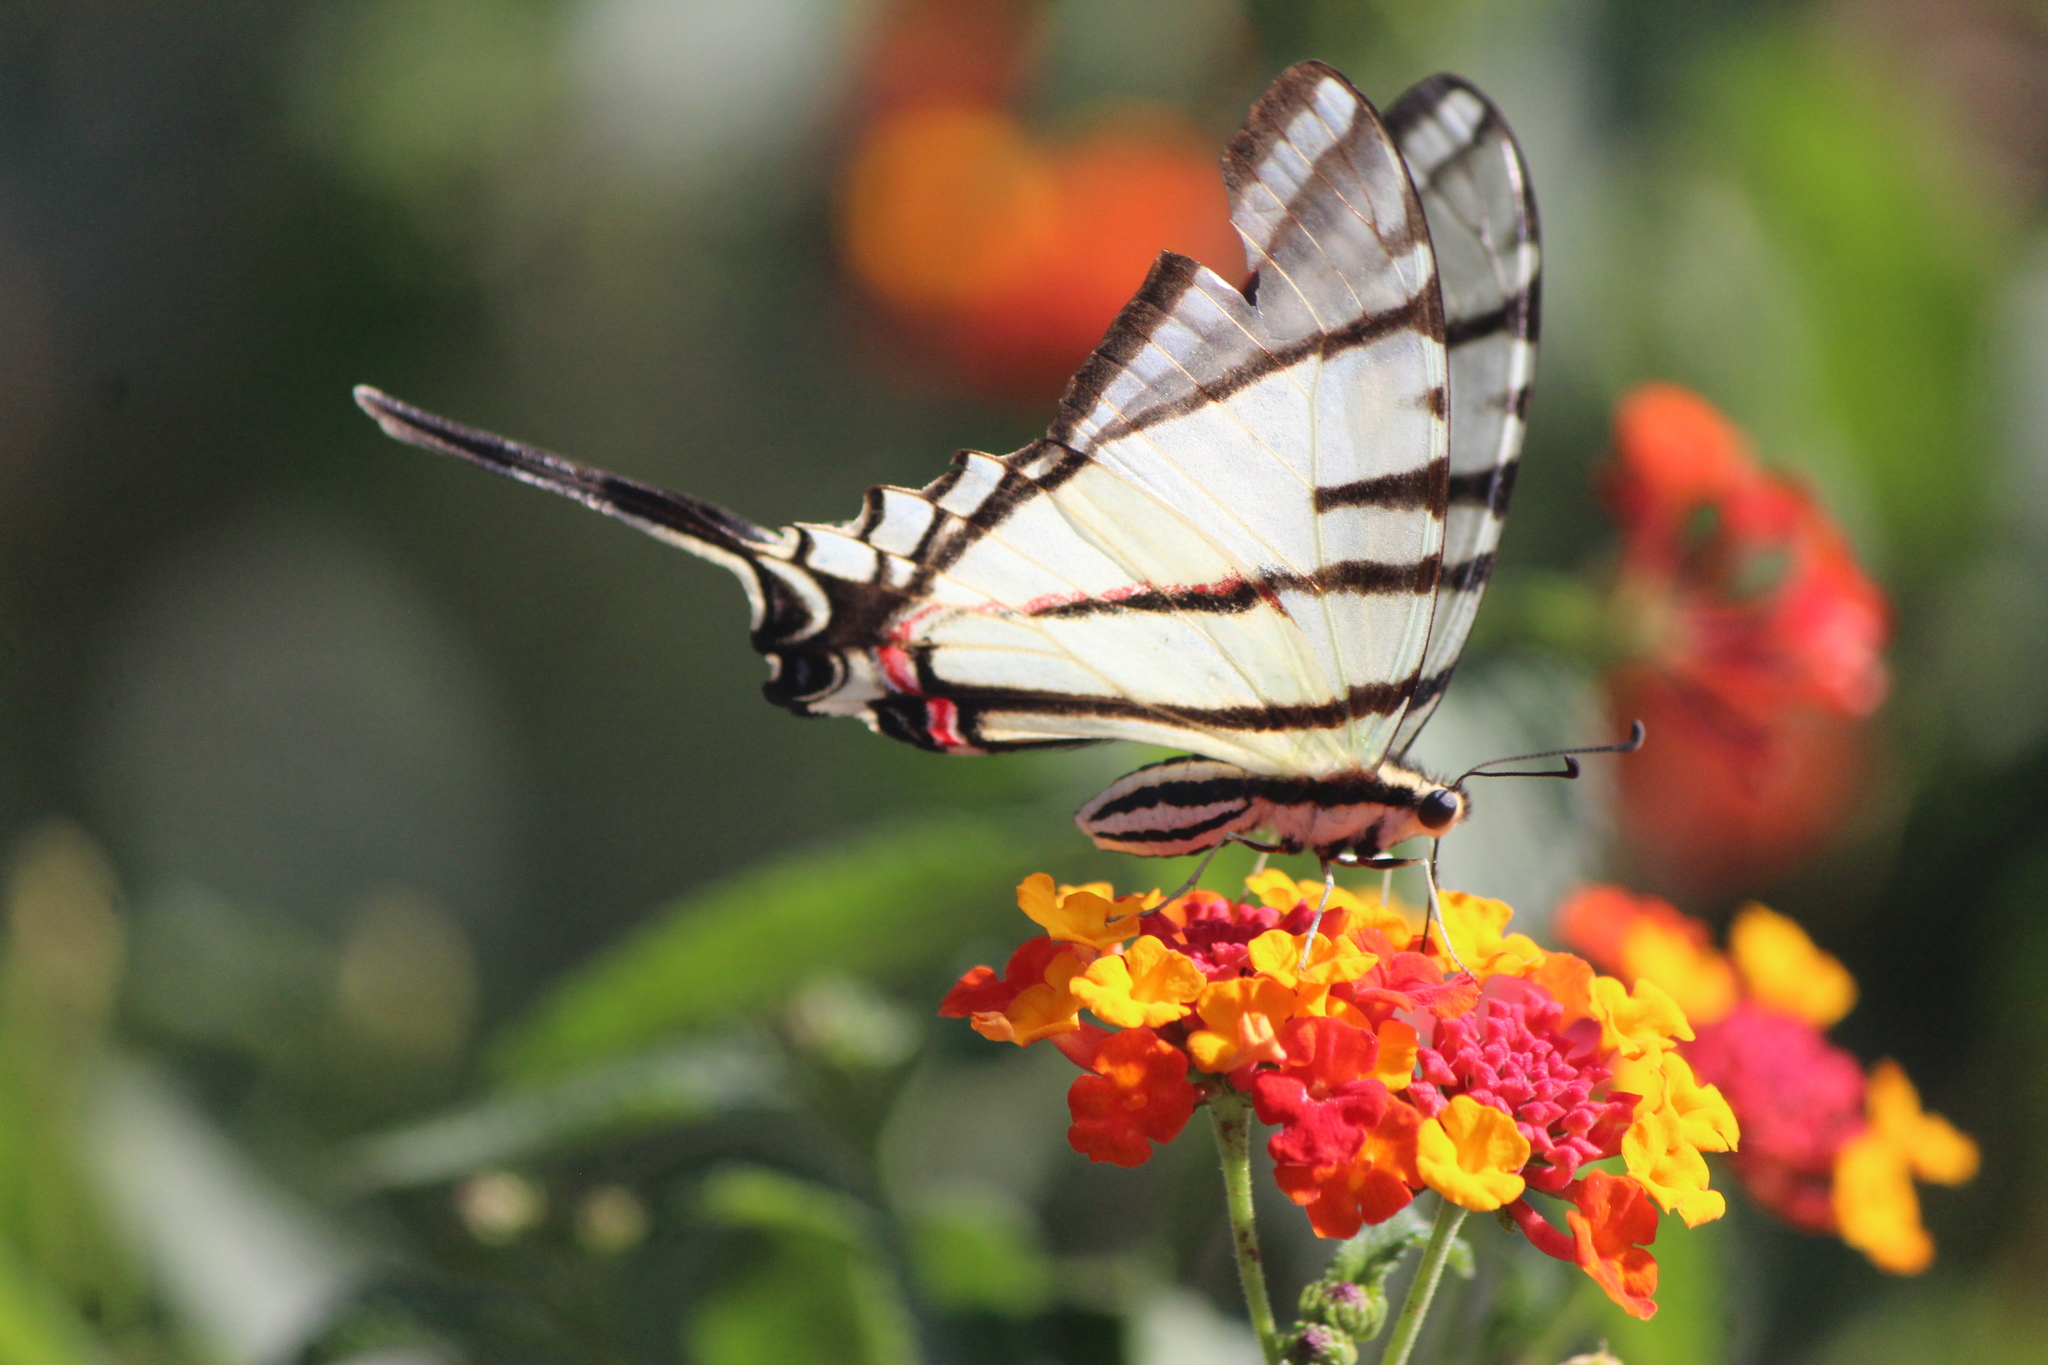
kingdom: Animalia
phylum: Arthropoda
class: Insecta
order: Lepidoptera
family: Papilionidae
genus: Protographium
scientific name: Protographium epidaus
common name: Mexican kite swallowtail
